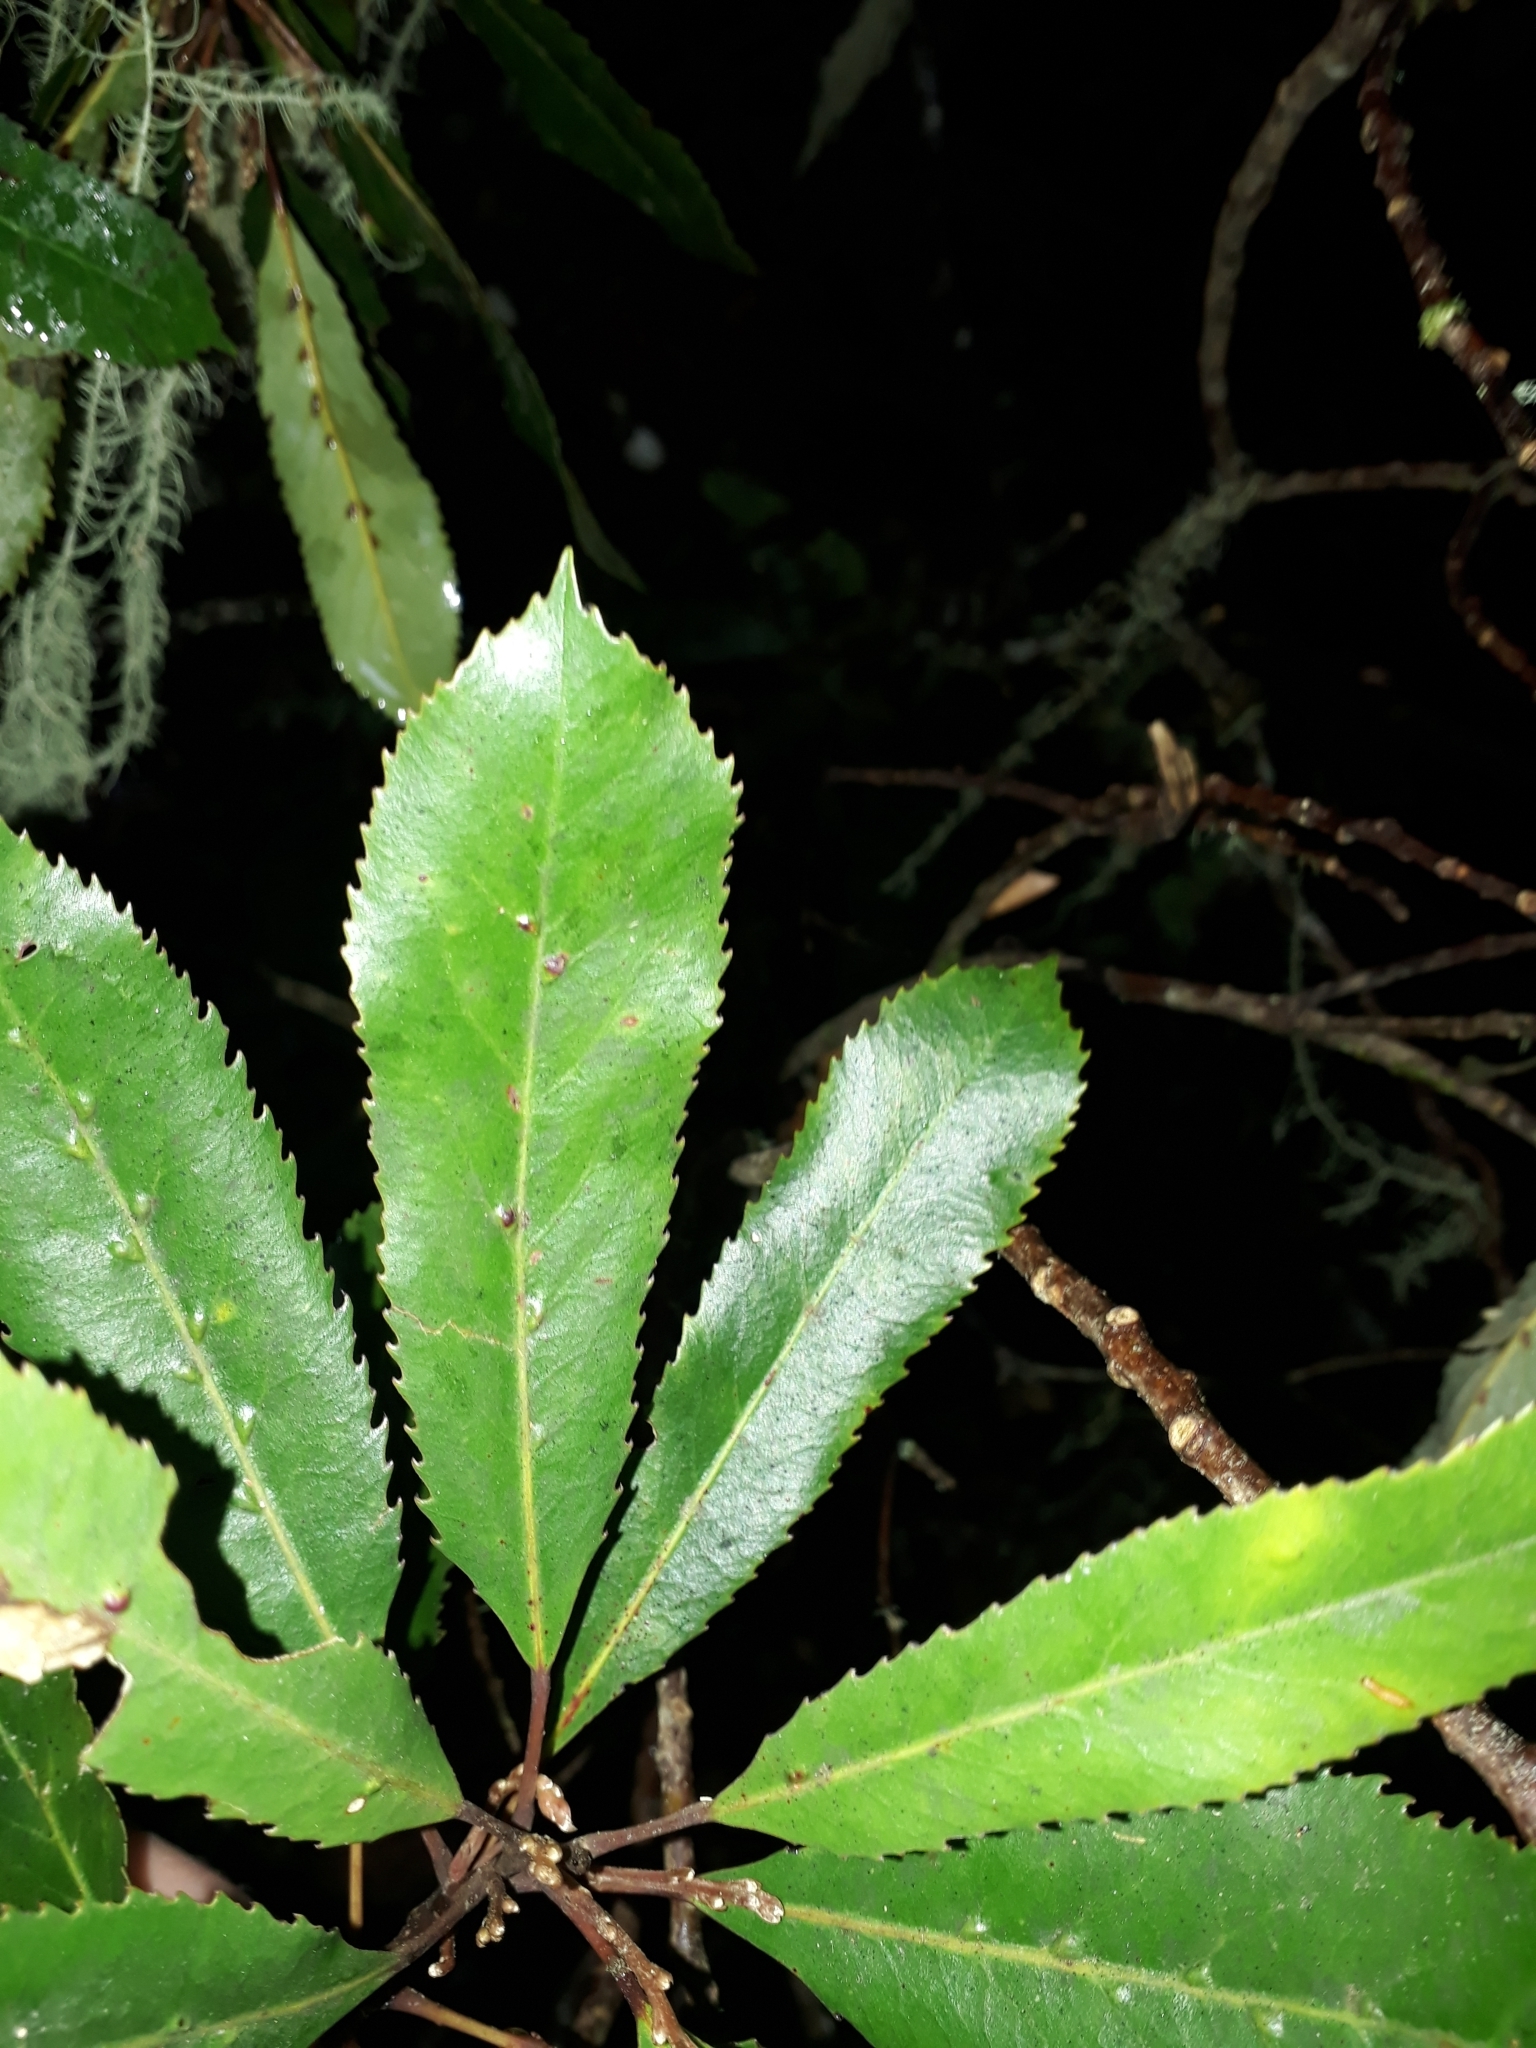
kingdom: Plantae
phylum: Tracheophyta
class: Magnoliopsida
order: Oxalidales
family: Elaeocarpaceae
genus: Elaeocarpus
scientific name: Elaeocarpus dentatus
